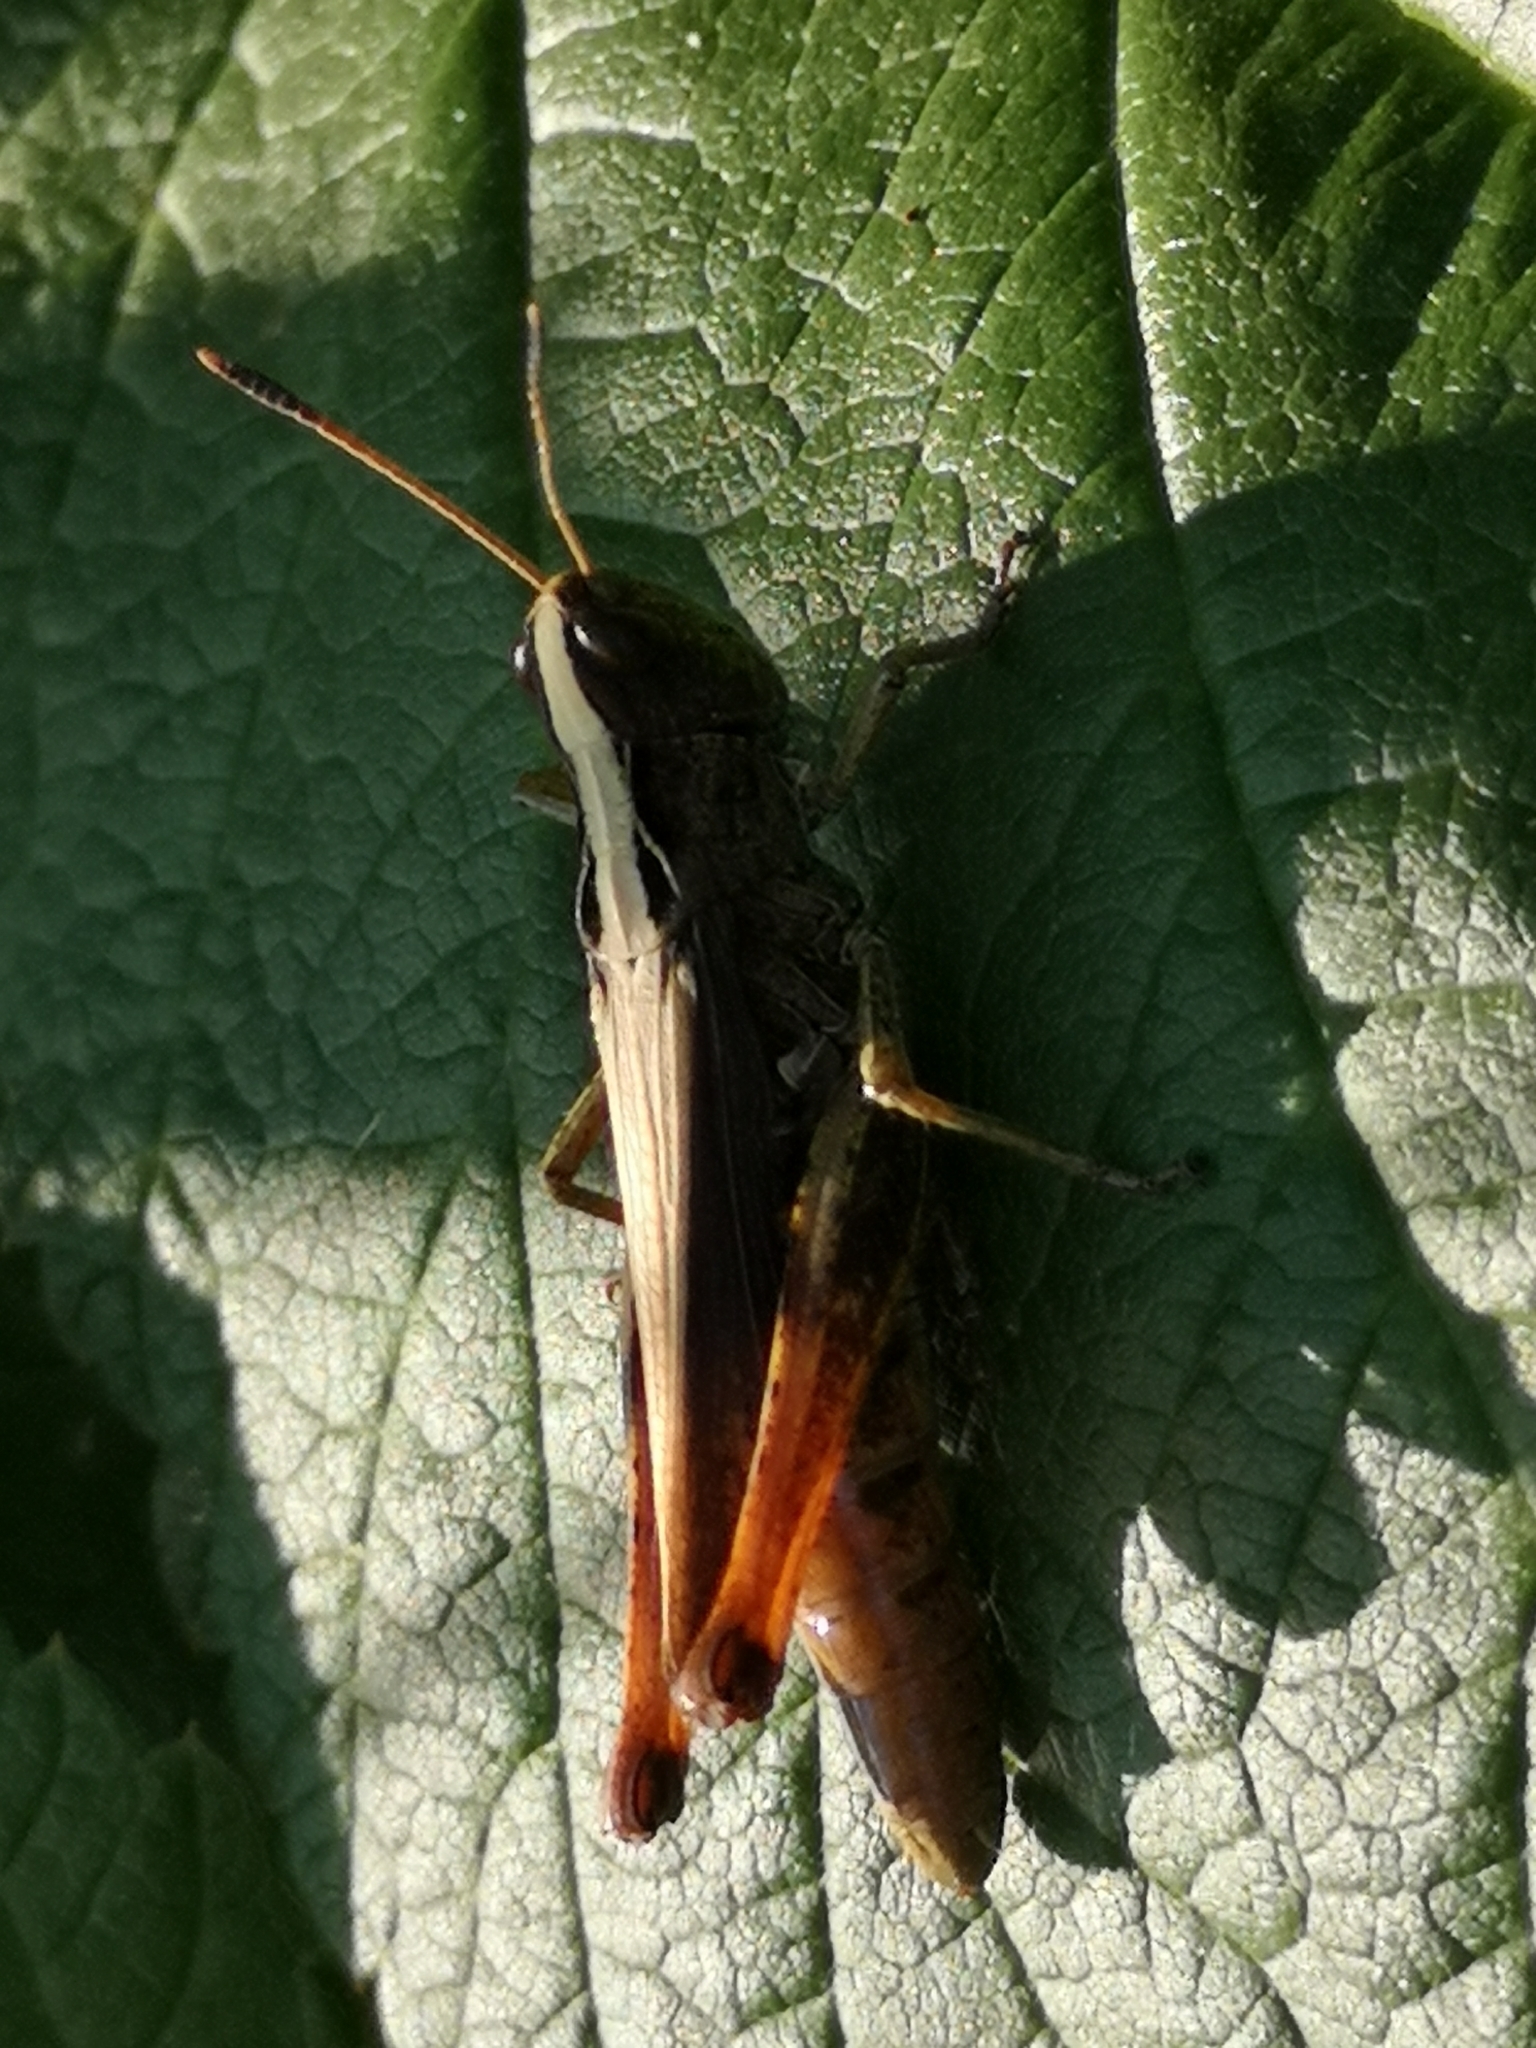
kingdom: Animalia
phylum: Arthropoda
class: Insecta
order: Orthoptera
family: Acrididae
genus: Gomphocerippus
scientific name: Gomphocerippus rufus
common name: Rufous grasshopper
